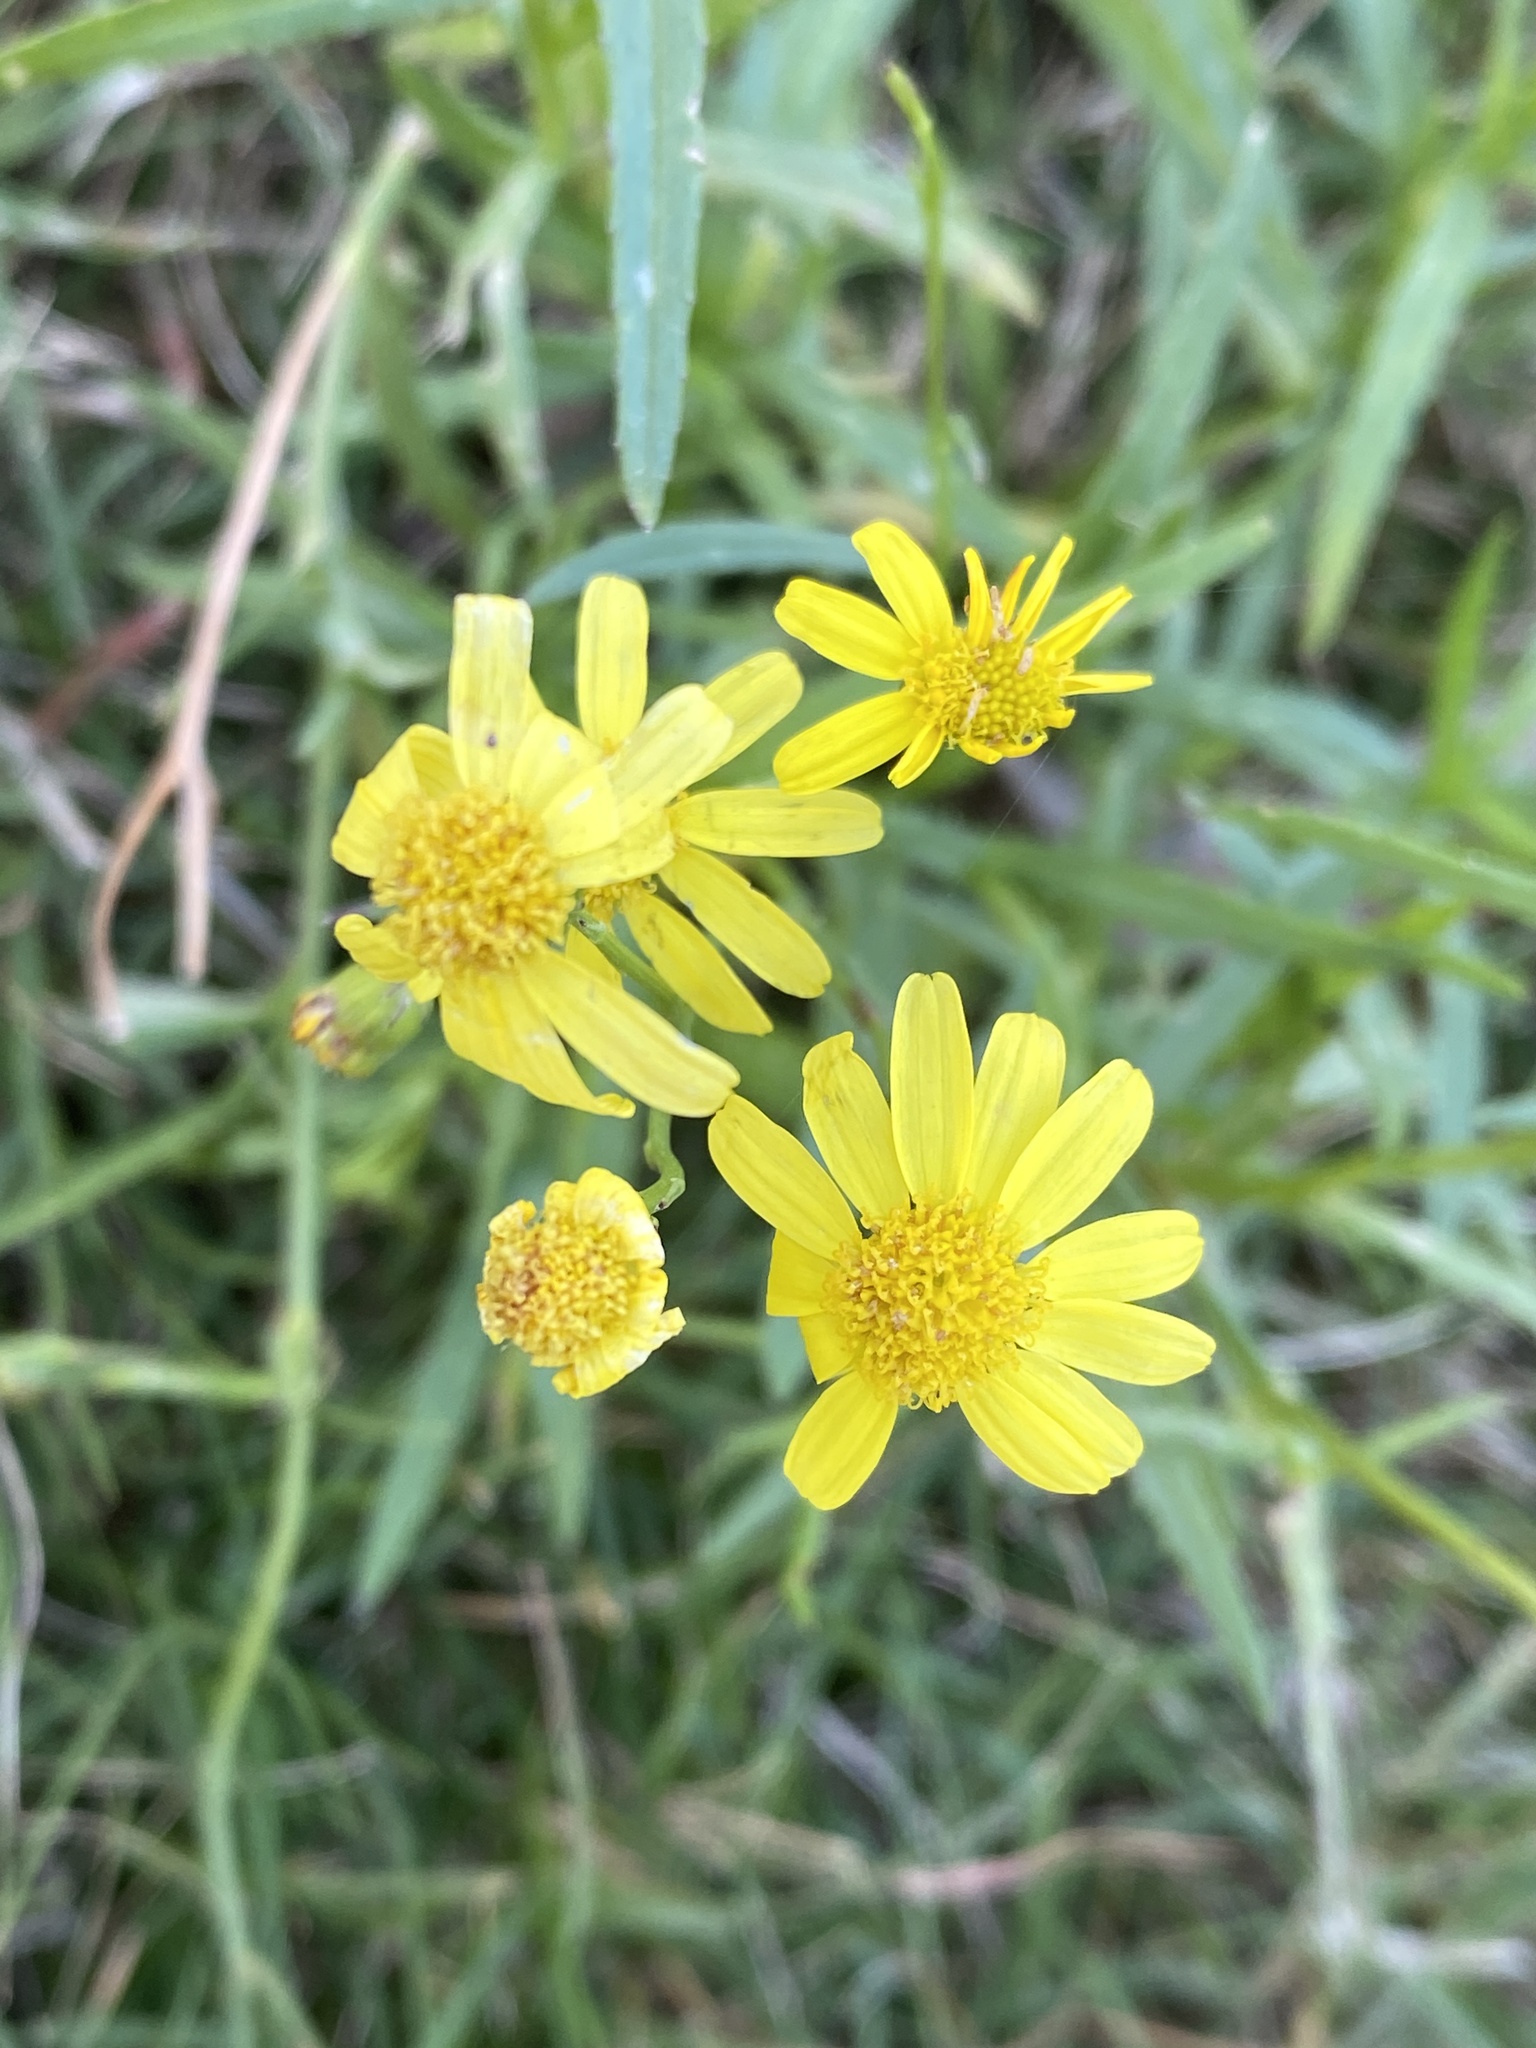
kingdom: Plantae
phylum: Tracheophyta
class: Magnoliopsida
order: Asterales
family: Asteraceae
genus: Senecio
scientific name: Senecio madagascariensis
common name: Madagascar ragwort
